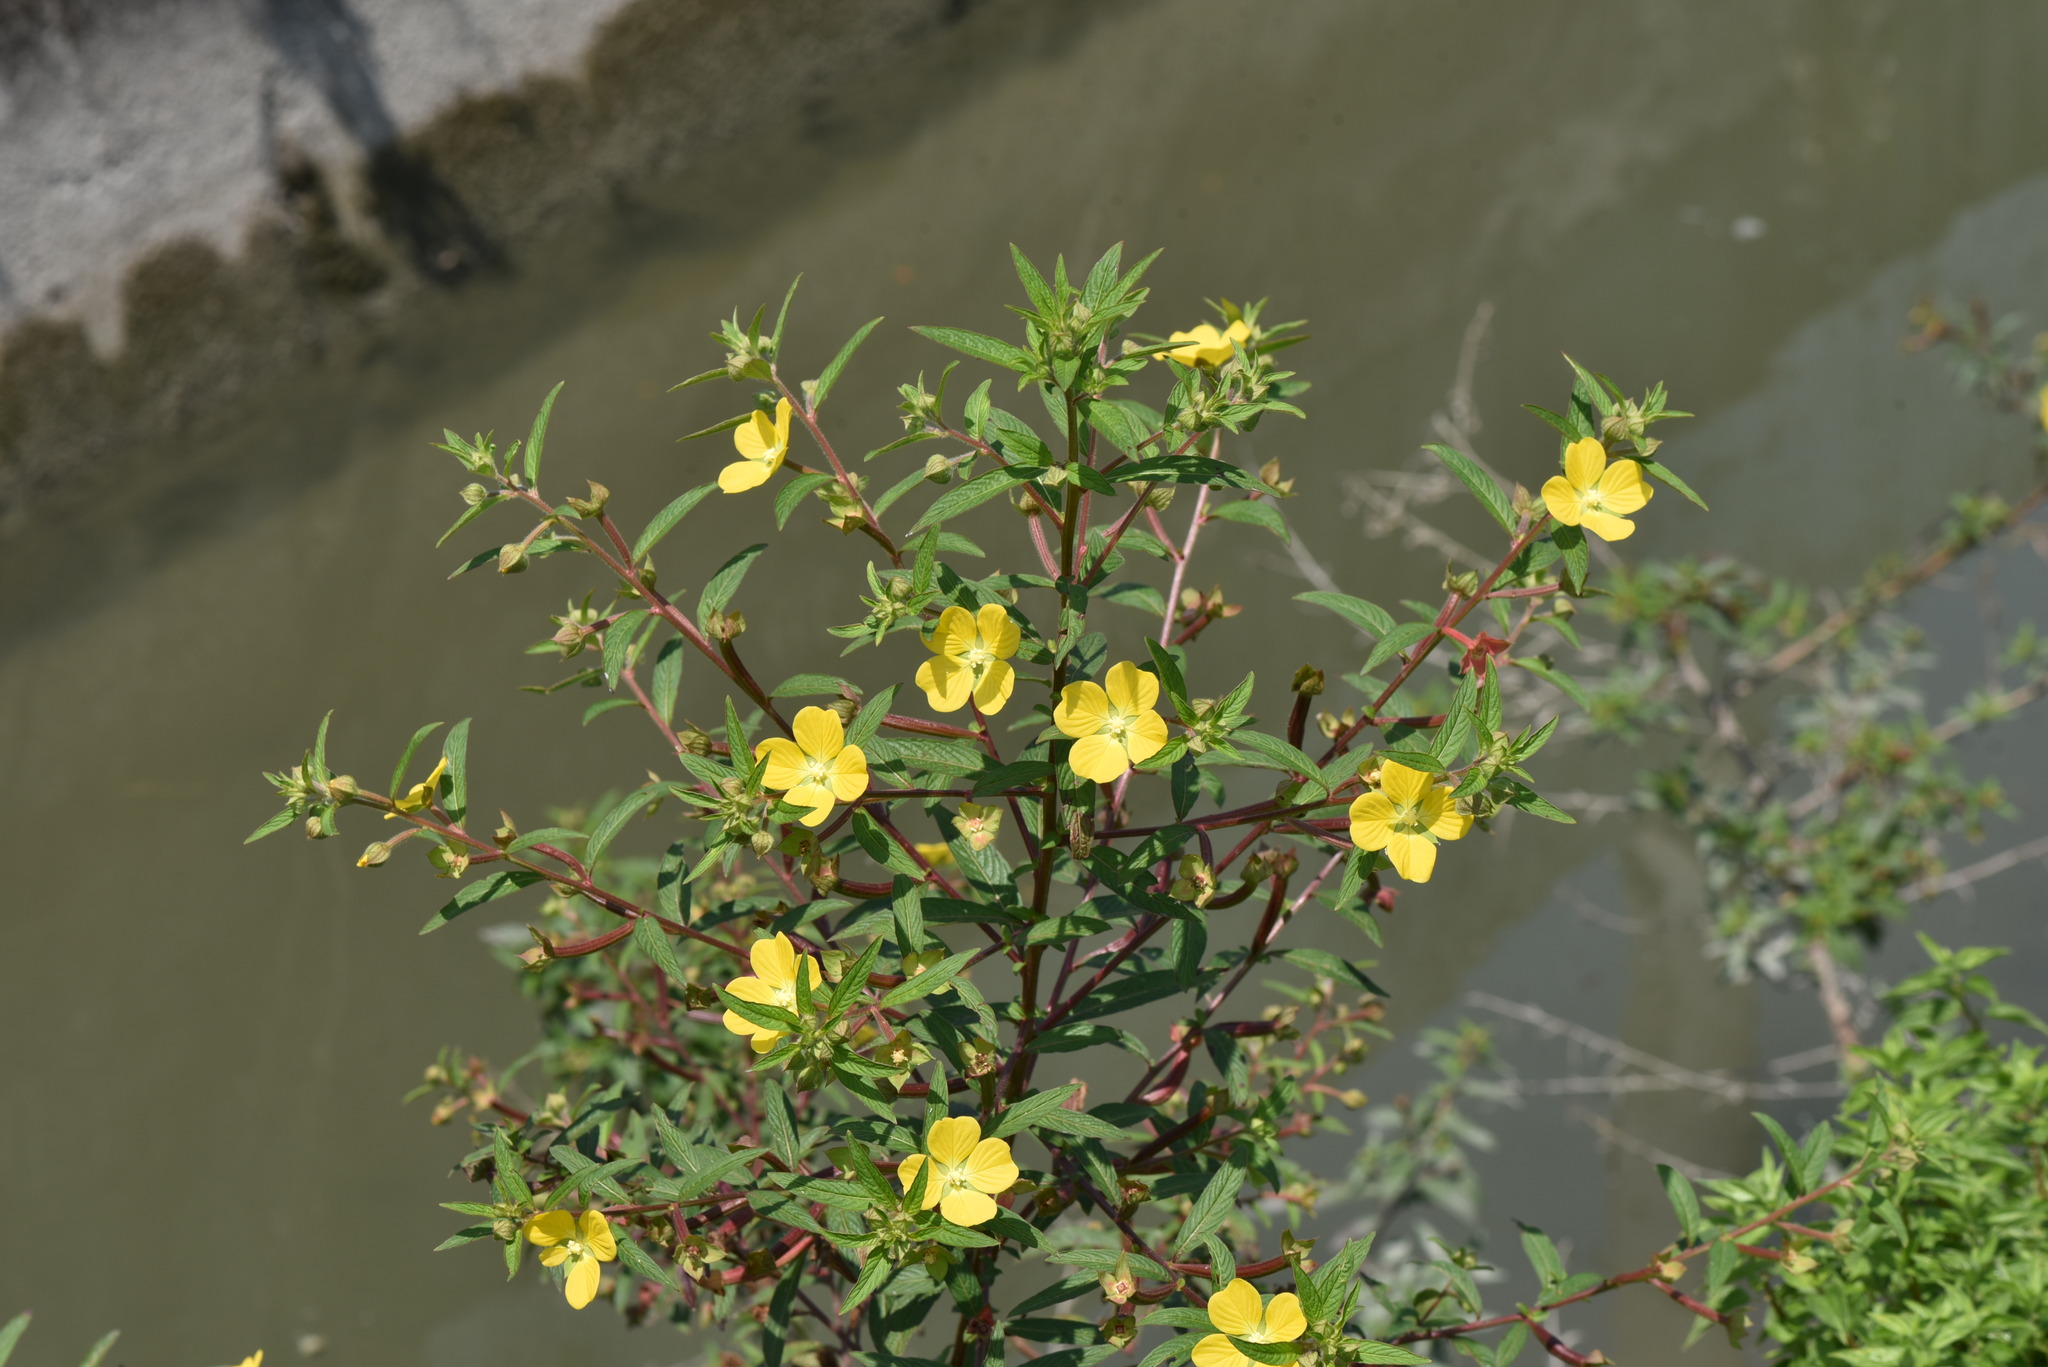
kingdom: Plantae
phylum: Tracheophyta
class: Magnoliopsida
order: Myrtales
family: Onagraceae
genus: Ludwigia
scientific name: Ludwigia octovalvis
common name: Water-primrose
